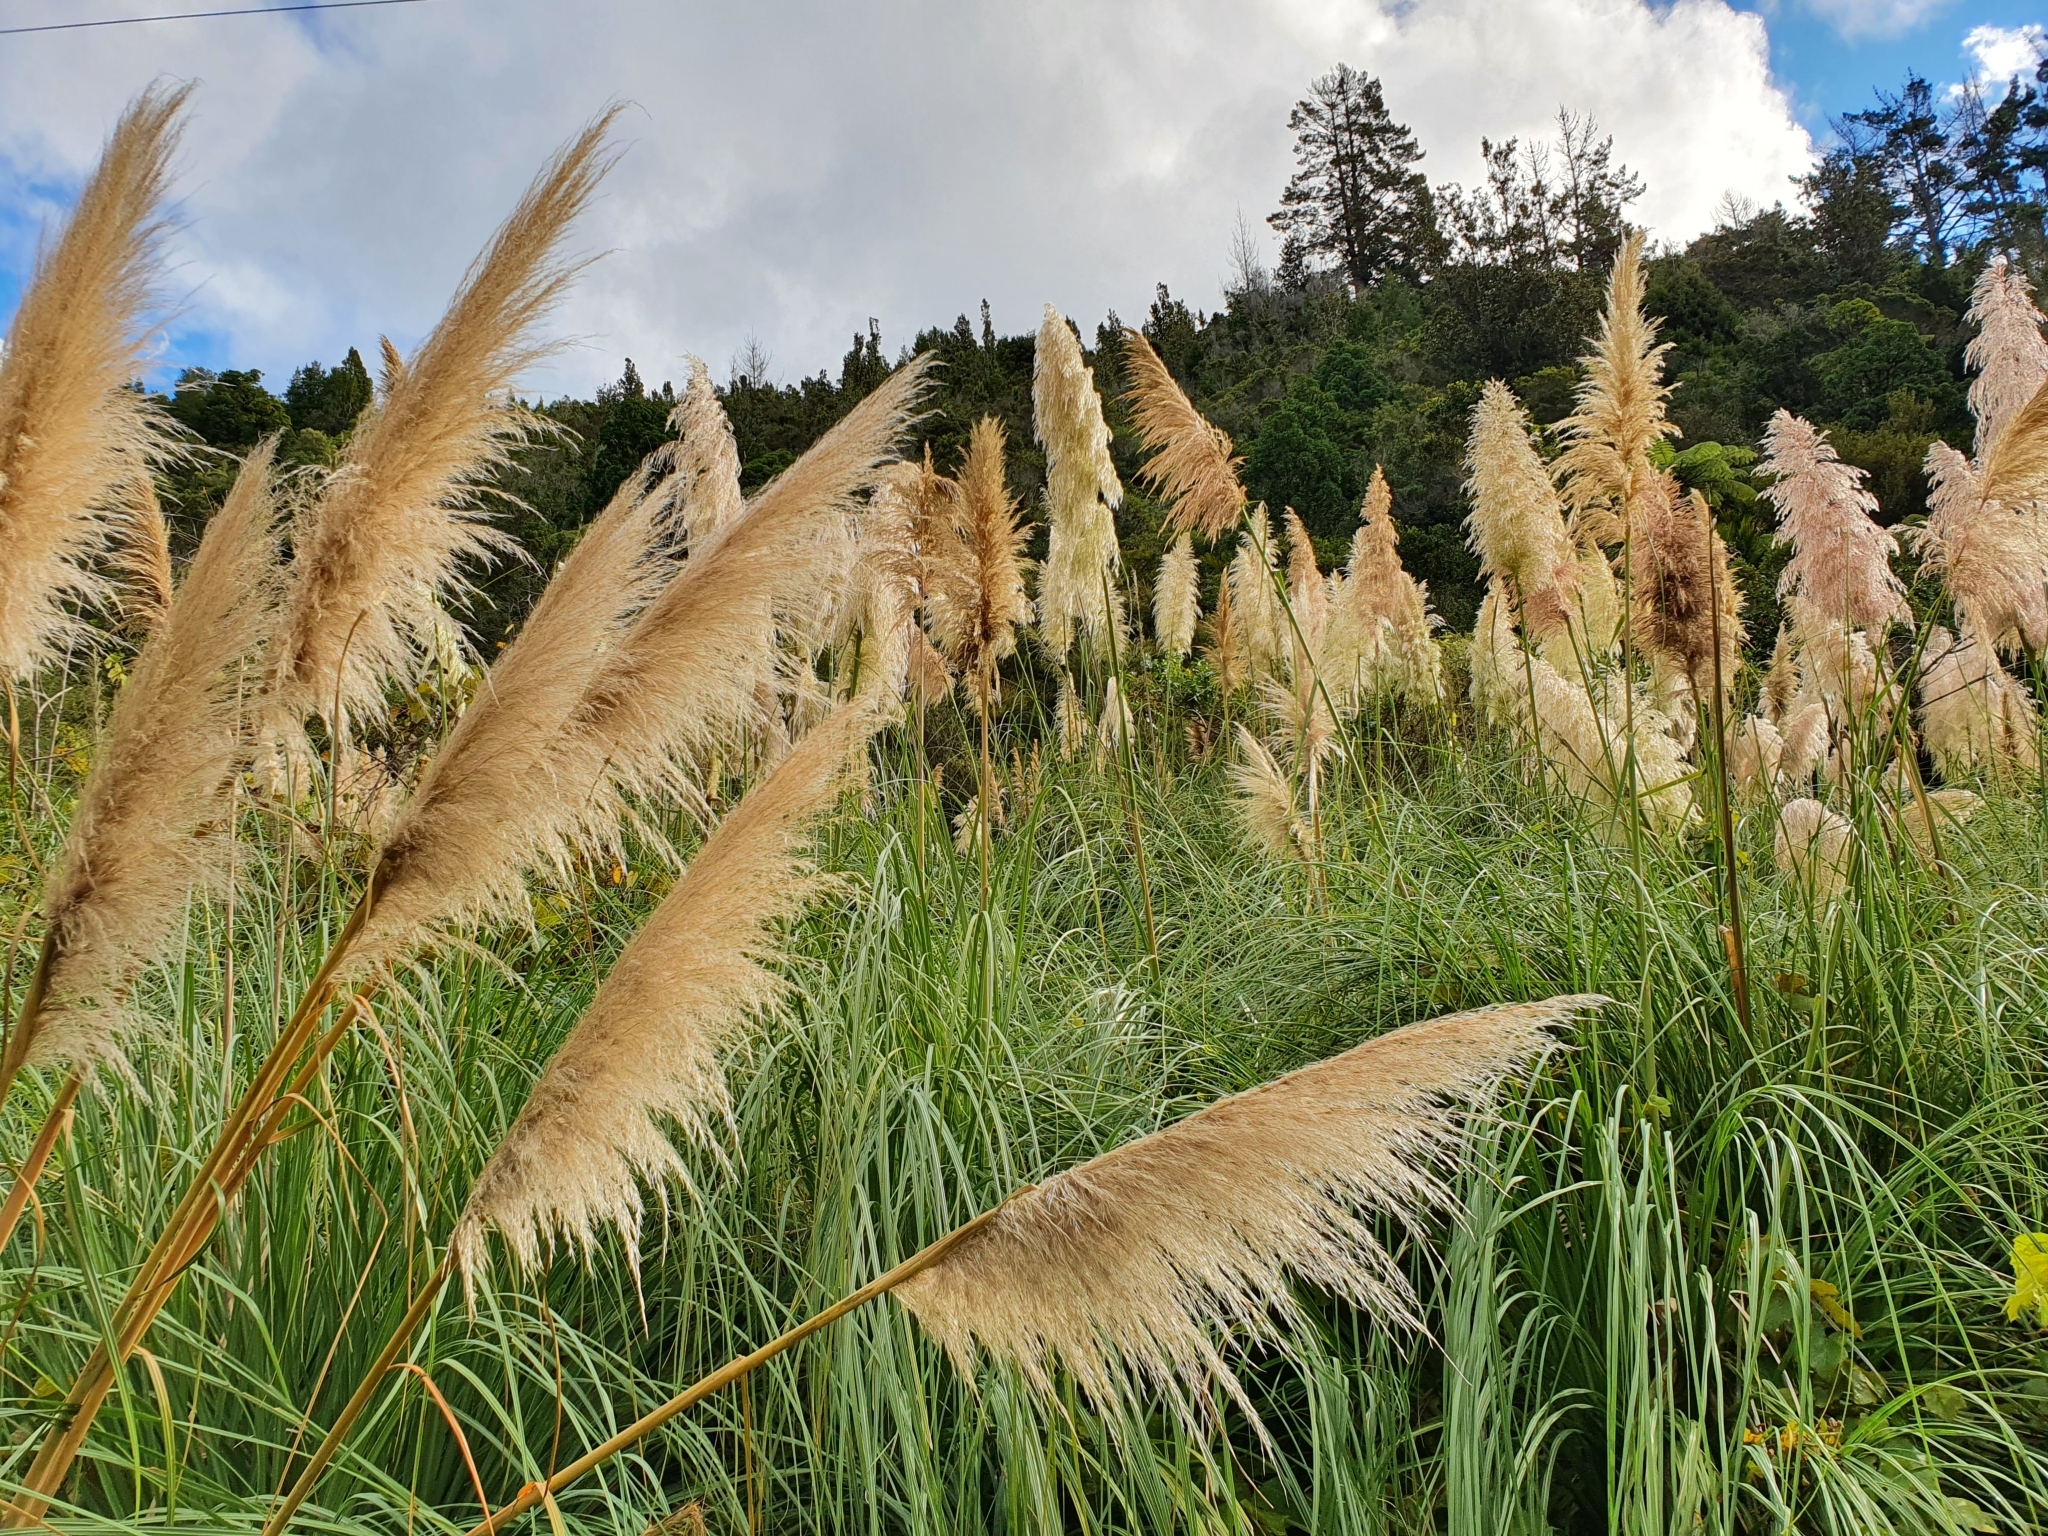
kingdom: Plantae
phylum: Tracheophyta
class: Liliopsida
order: Poales
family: Poaceae
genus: Cortaderia
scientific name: Cortaderia selloana
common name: Uruguayan pampas grass
